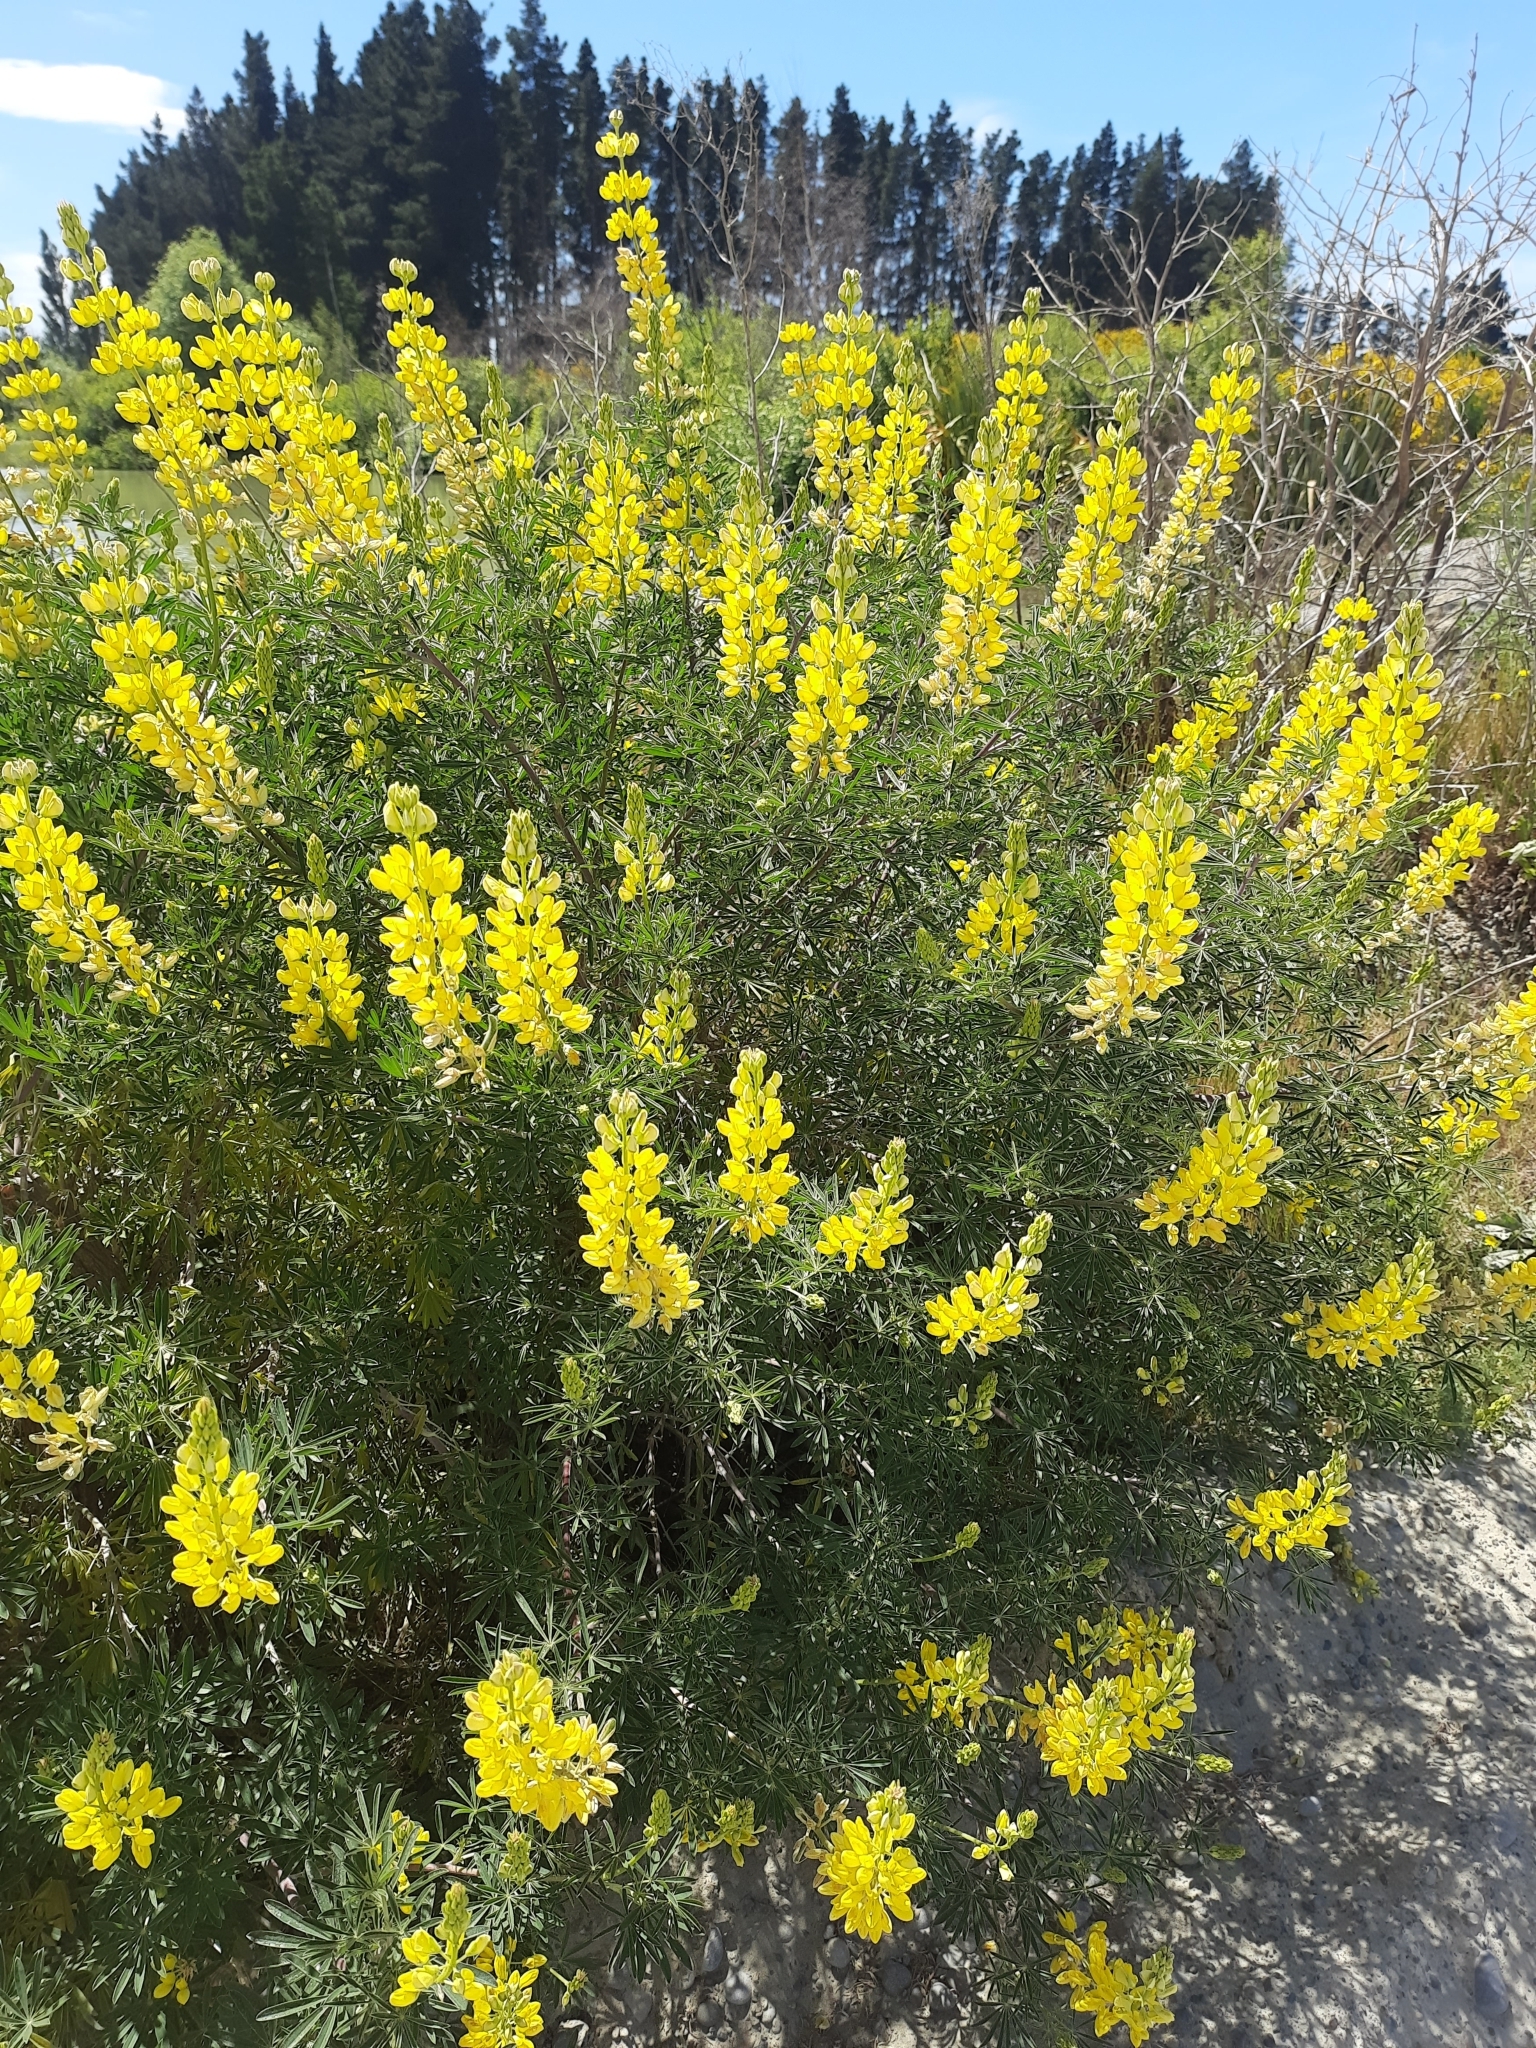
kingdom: Plantae
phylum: Tracheophyta
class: Magnoliopsida
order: Fabales
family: Fabaceae
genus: Lupinus
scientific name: Lupinus arboreus
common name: Yellow bush lupine
